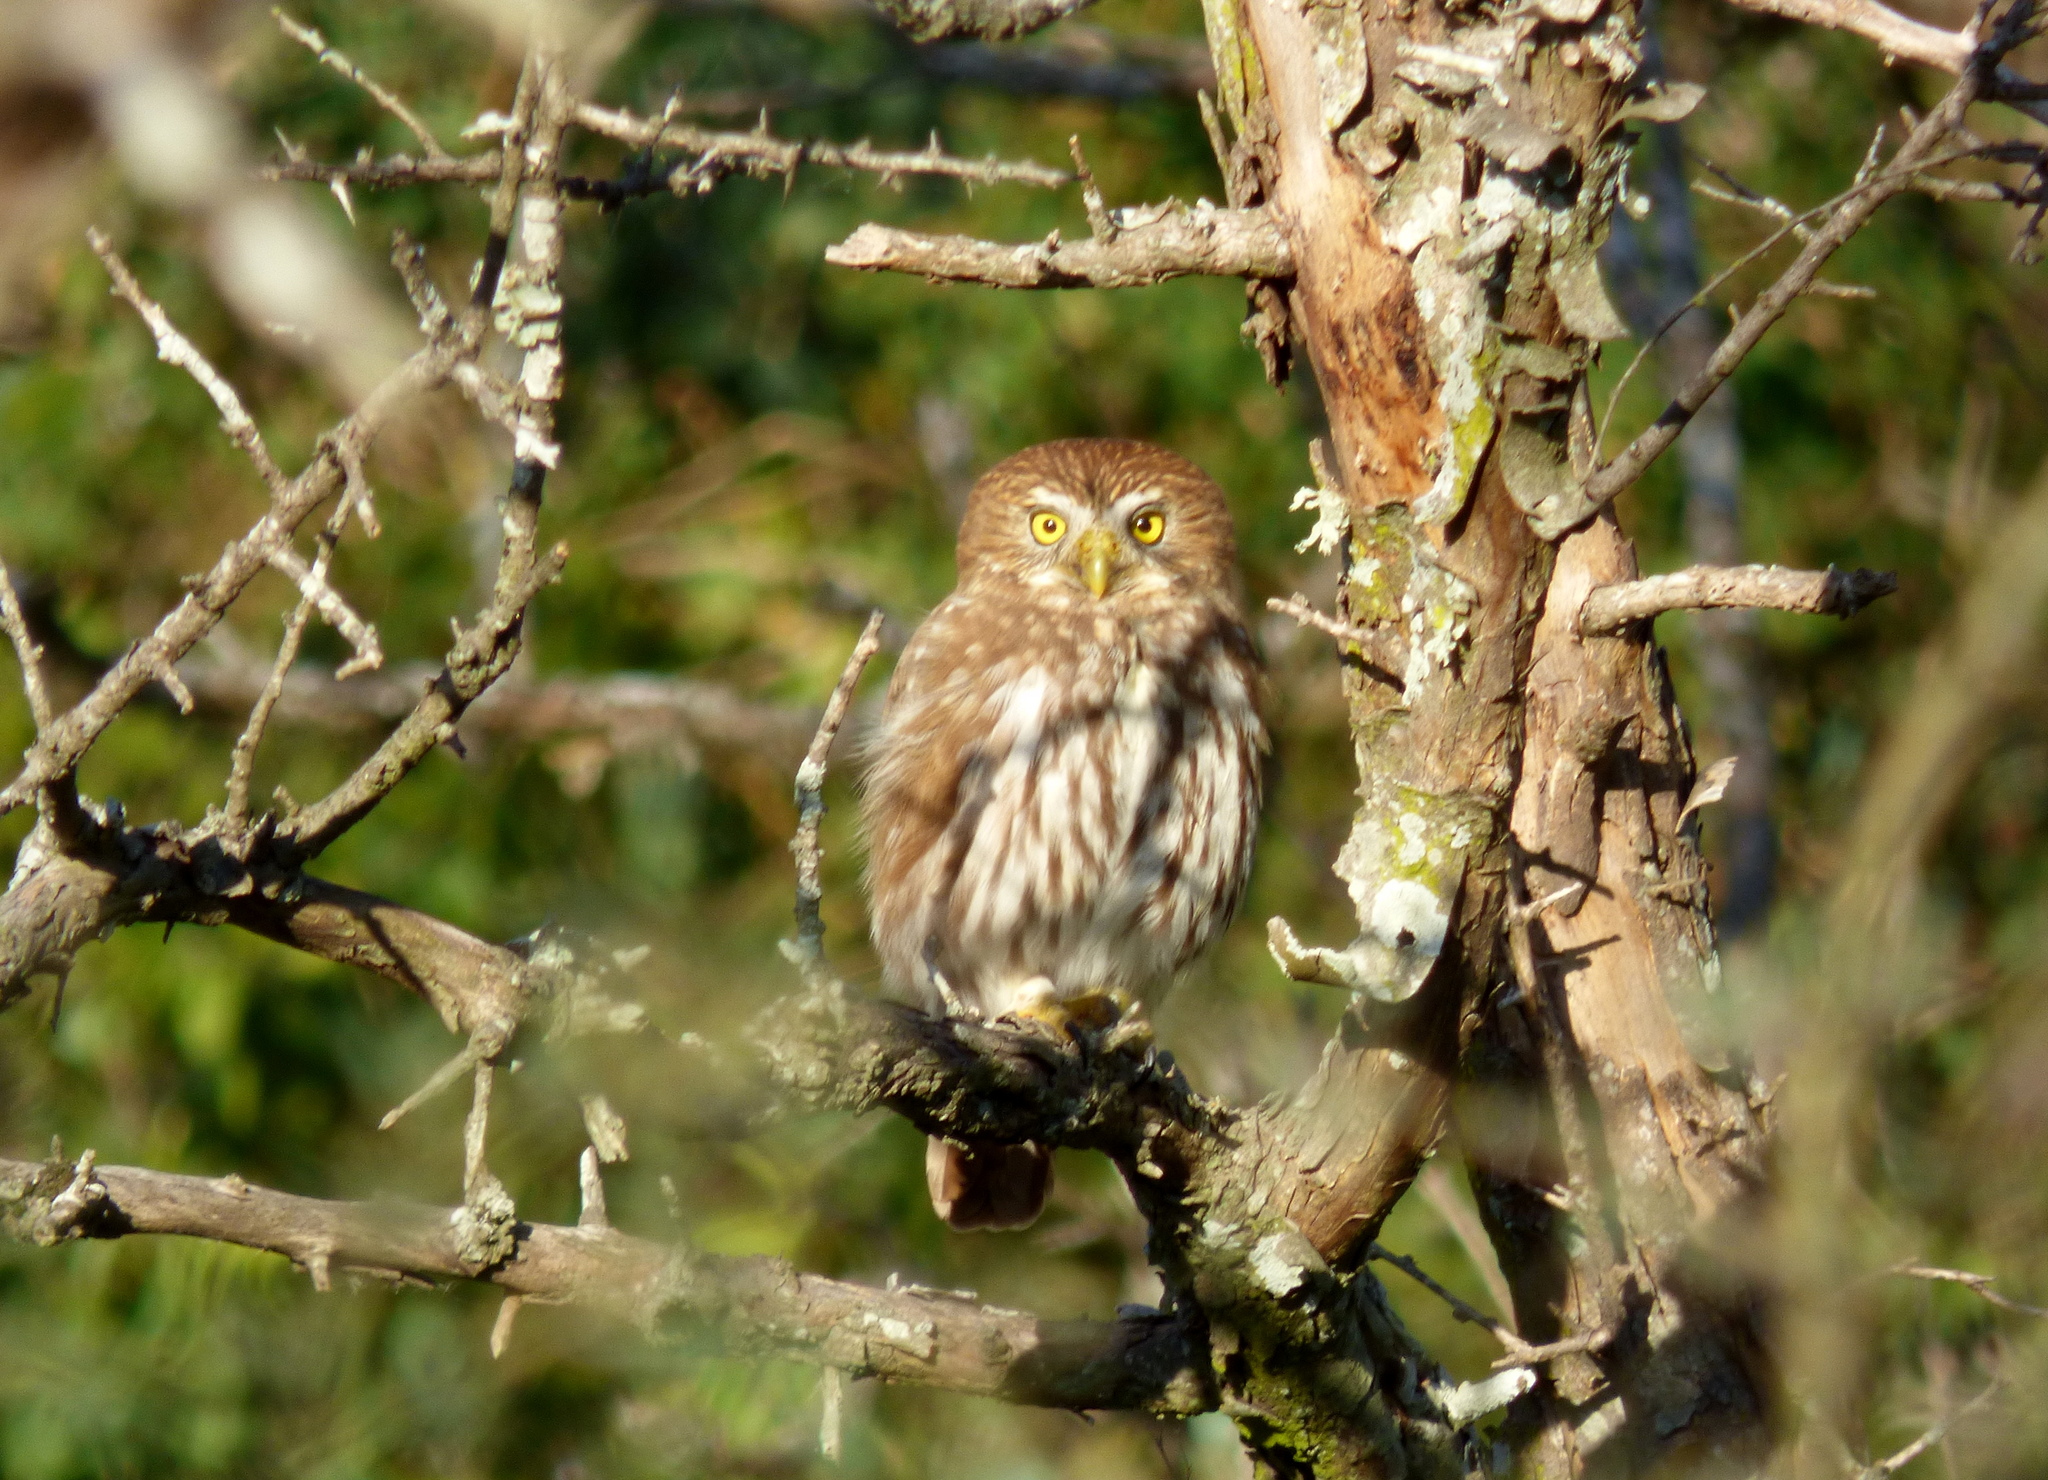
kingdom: Animalia
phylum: Chordata
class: Aves
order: Strigiformes
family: Strigidae
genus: Glaucidium
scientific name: Glaucidium brasilianum
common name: Ferruginous pygmy-owl
